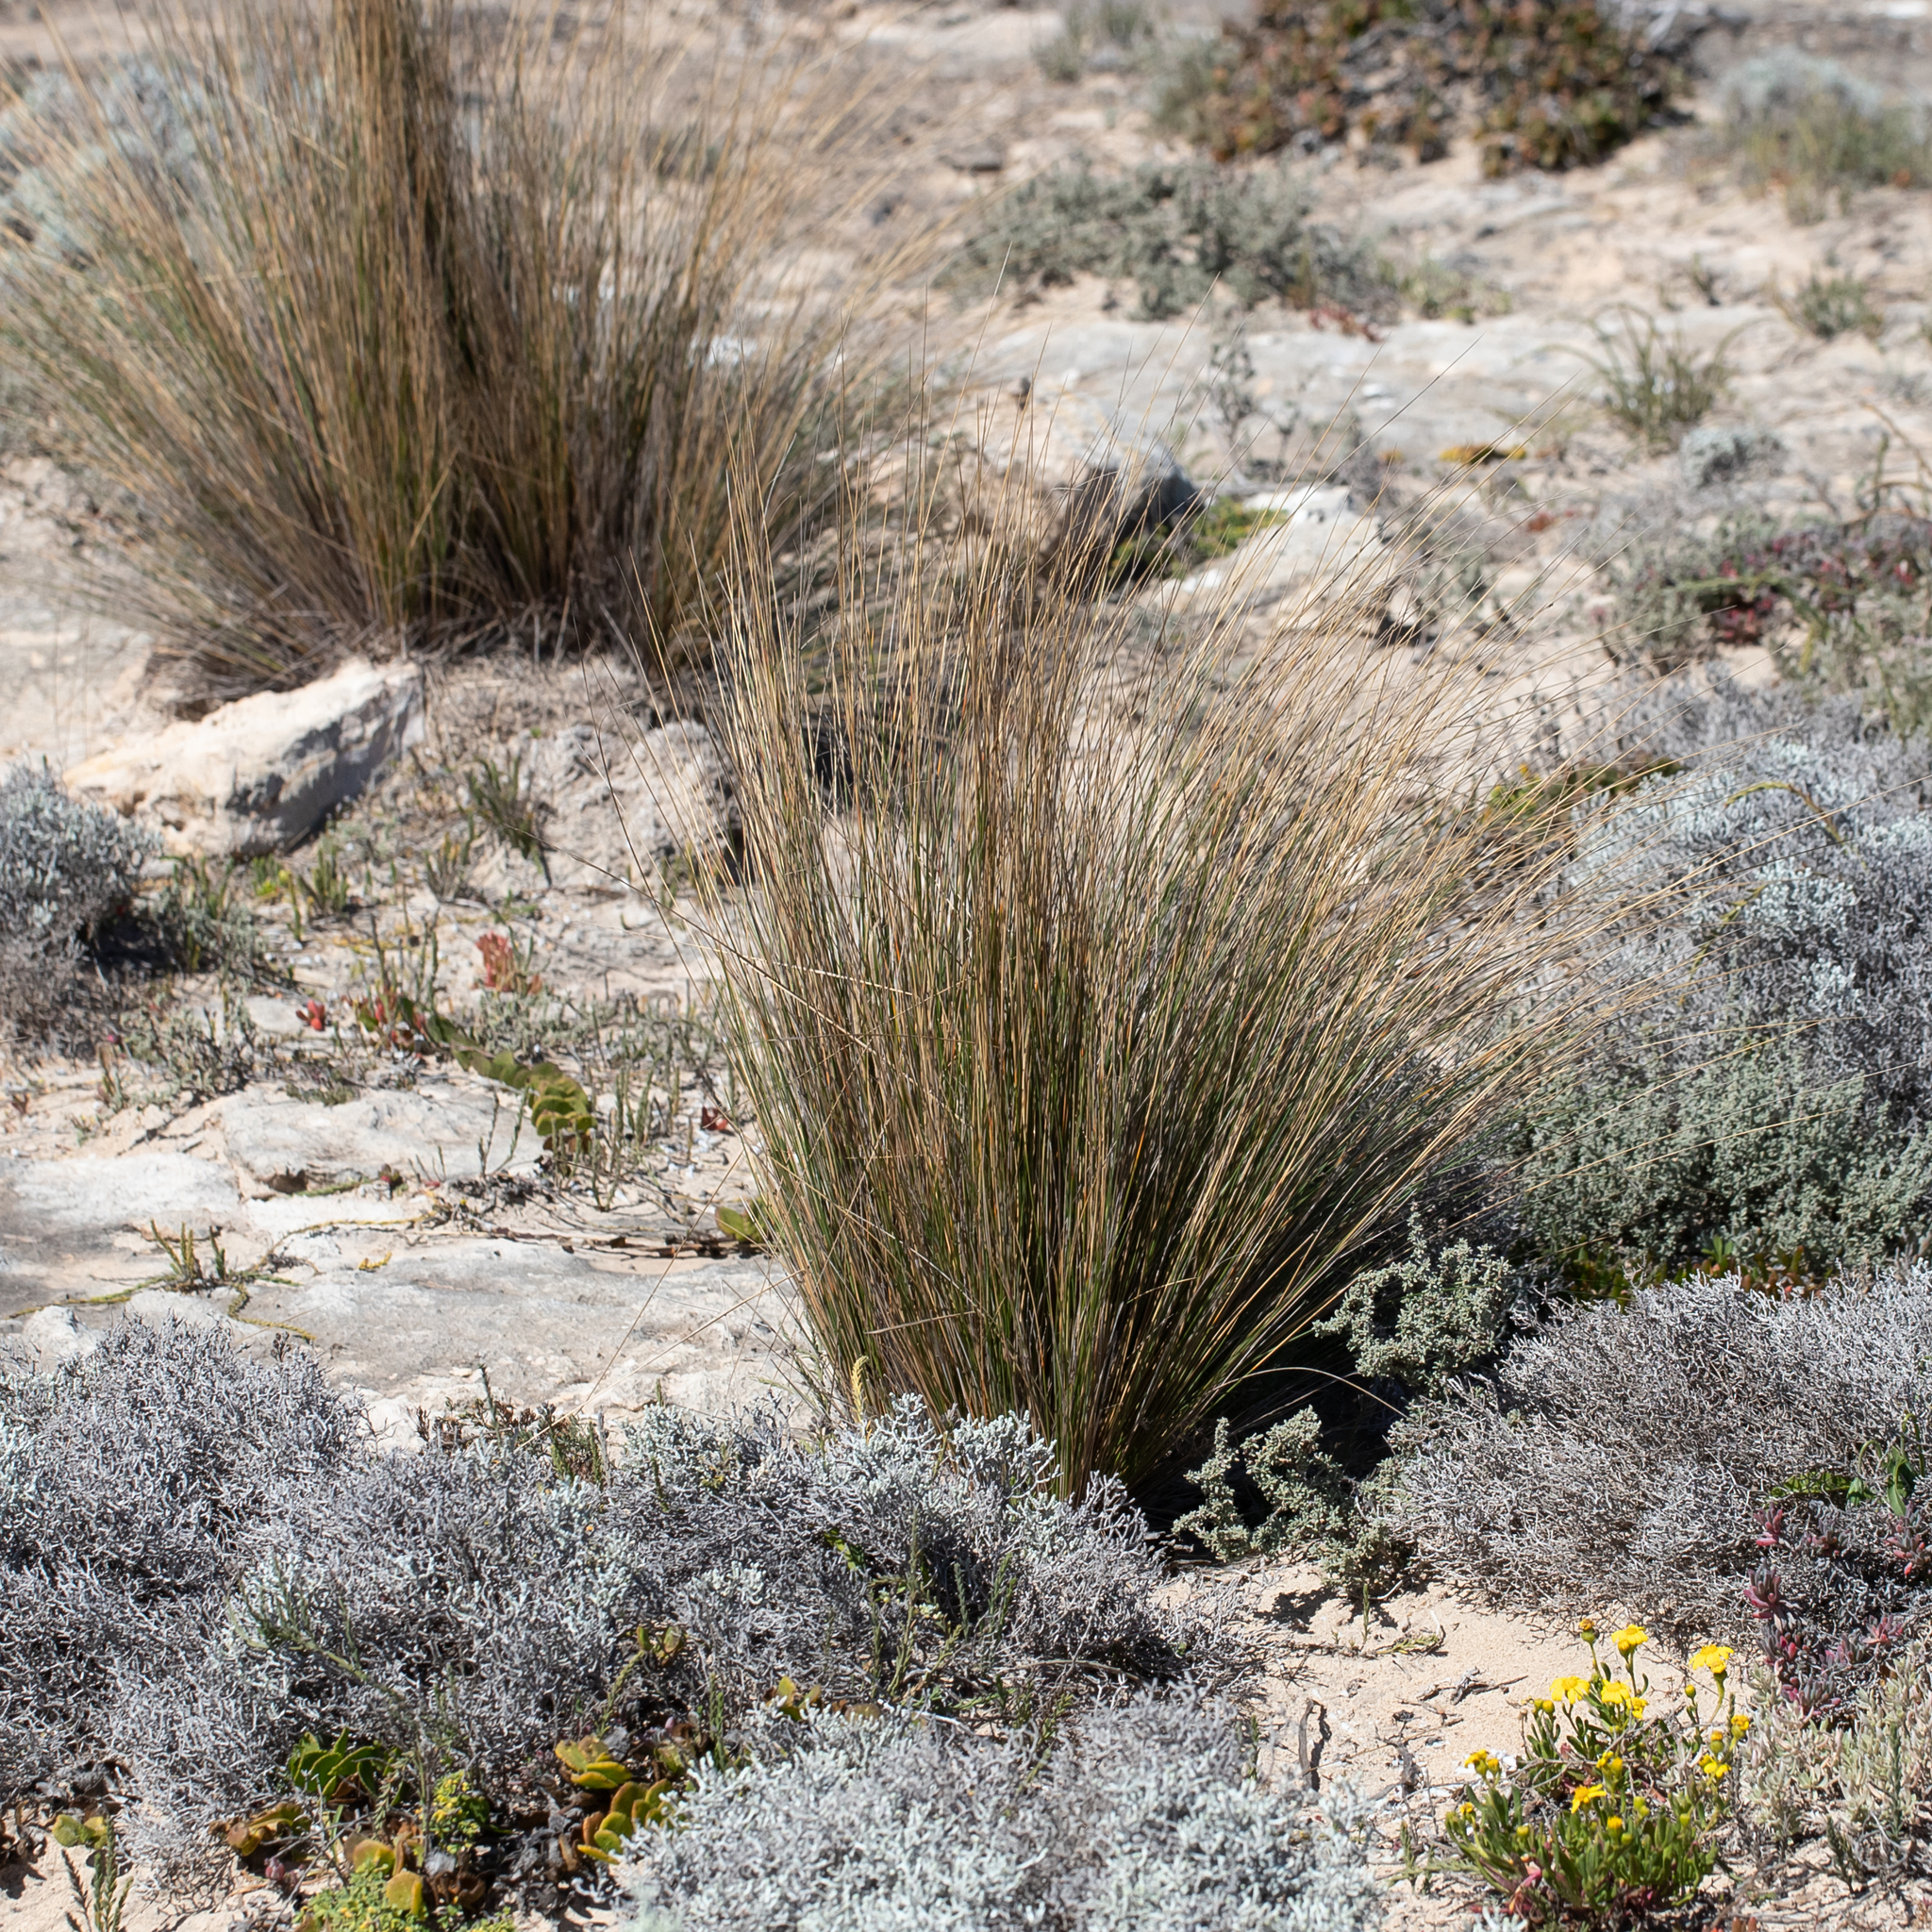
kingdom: Plantae
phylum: Tracheophyta
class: Liliopsida
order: Poales
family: Poaceae
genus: Austrostipa
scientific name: Austrostipa stipoides
